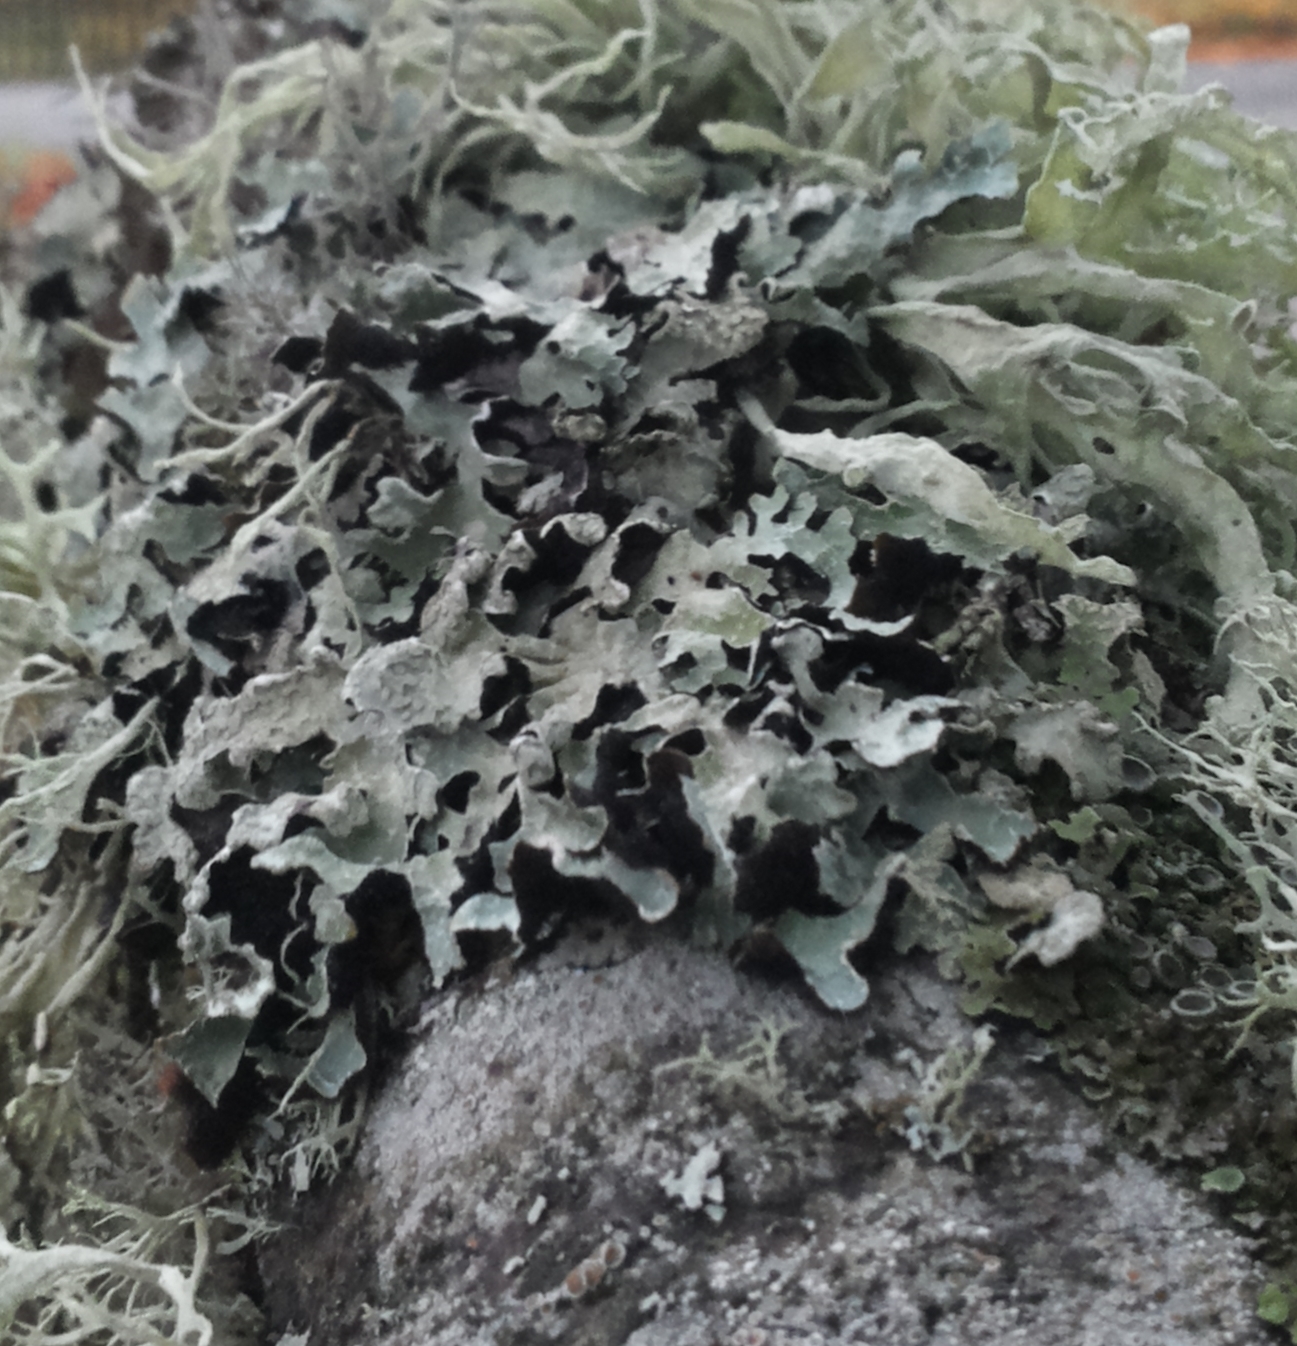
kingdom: Fungi
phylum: Ascomycota
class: Lecanoromycetes
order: Lecanorales
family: Parmeliaceae
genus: Parmelia
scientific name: Parmelia sulcata
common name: Netted shield lichen
